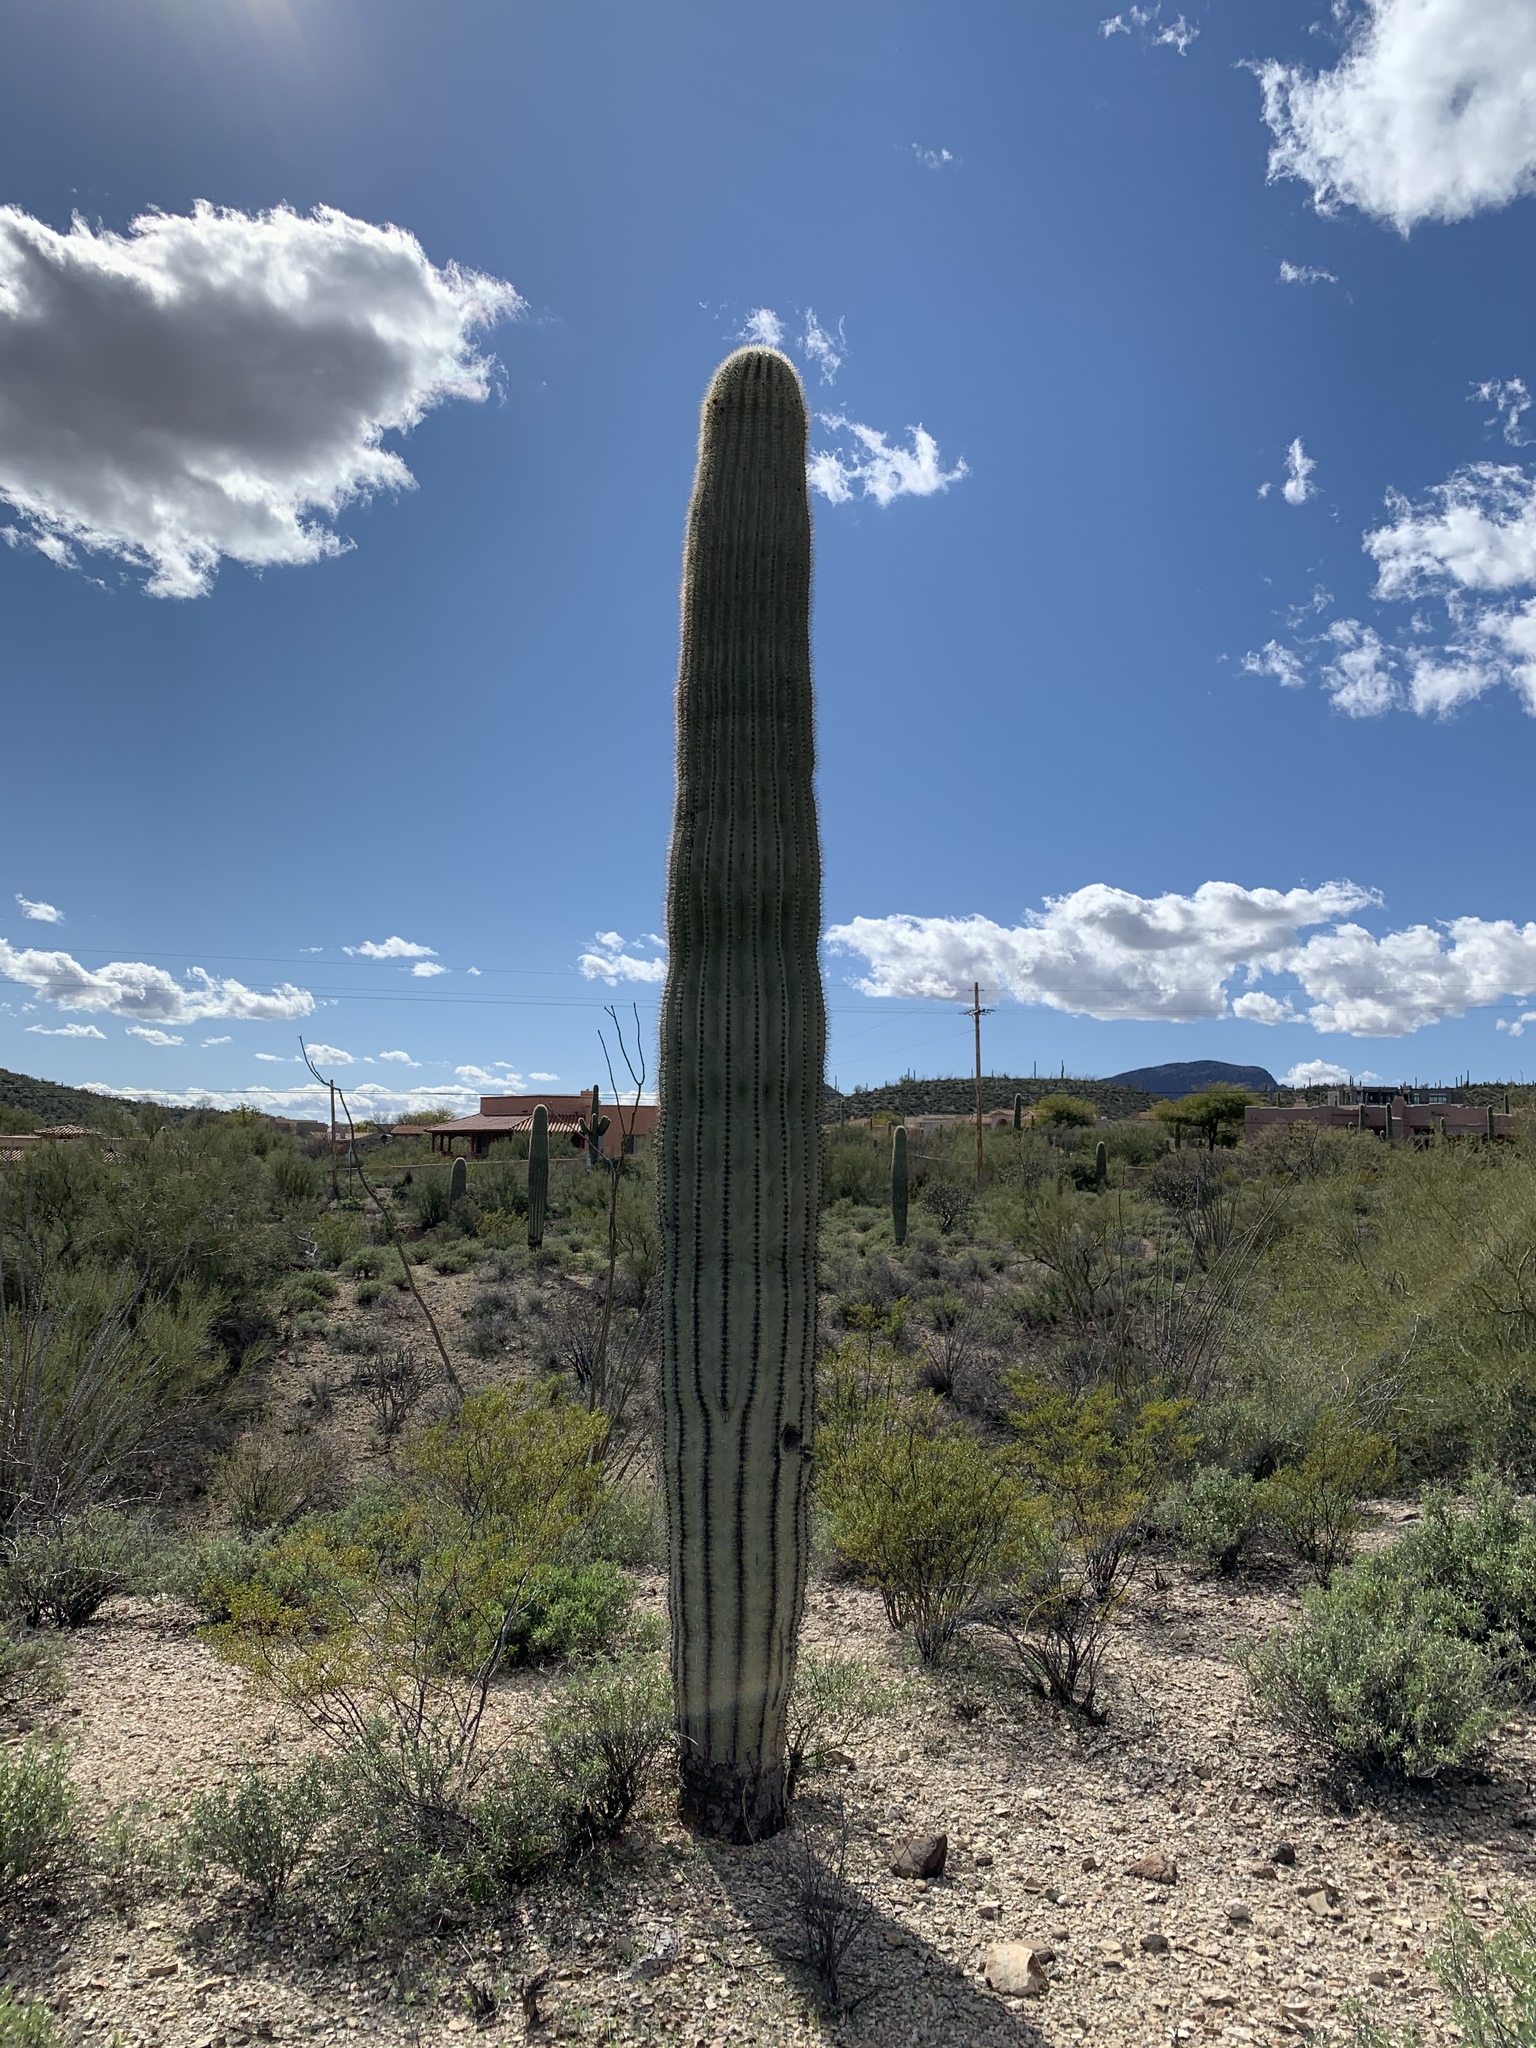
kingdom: Plantae
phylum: Tracheophyta
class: Magnoliopsida
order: Caryophyllales
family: Cactaceae
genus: Carnegiea
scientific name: Carnegiea gigantea
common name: Saguaro
